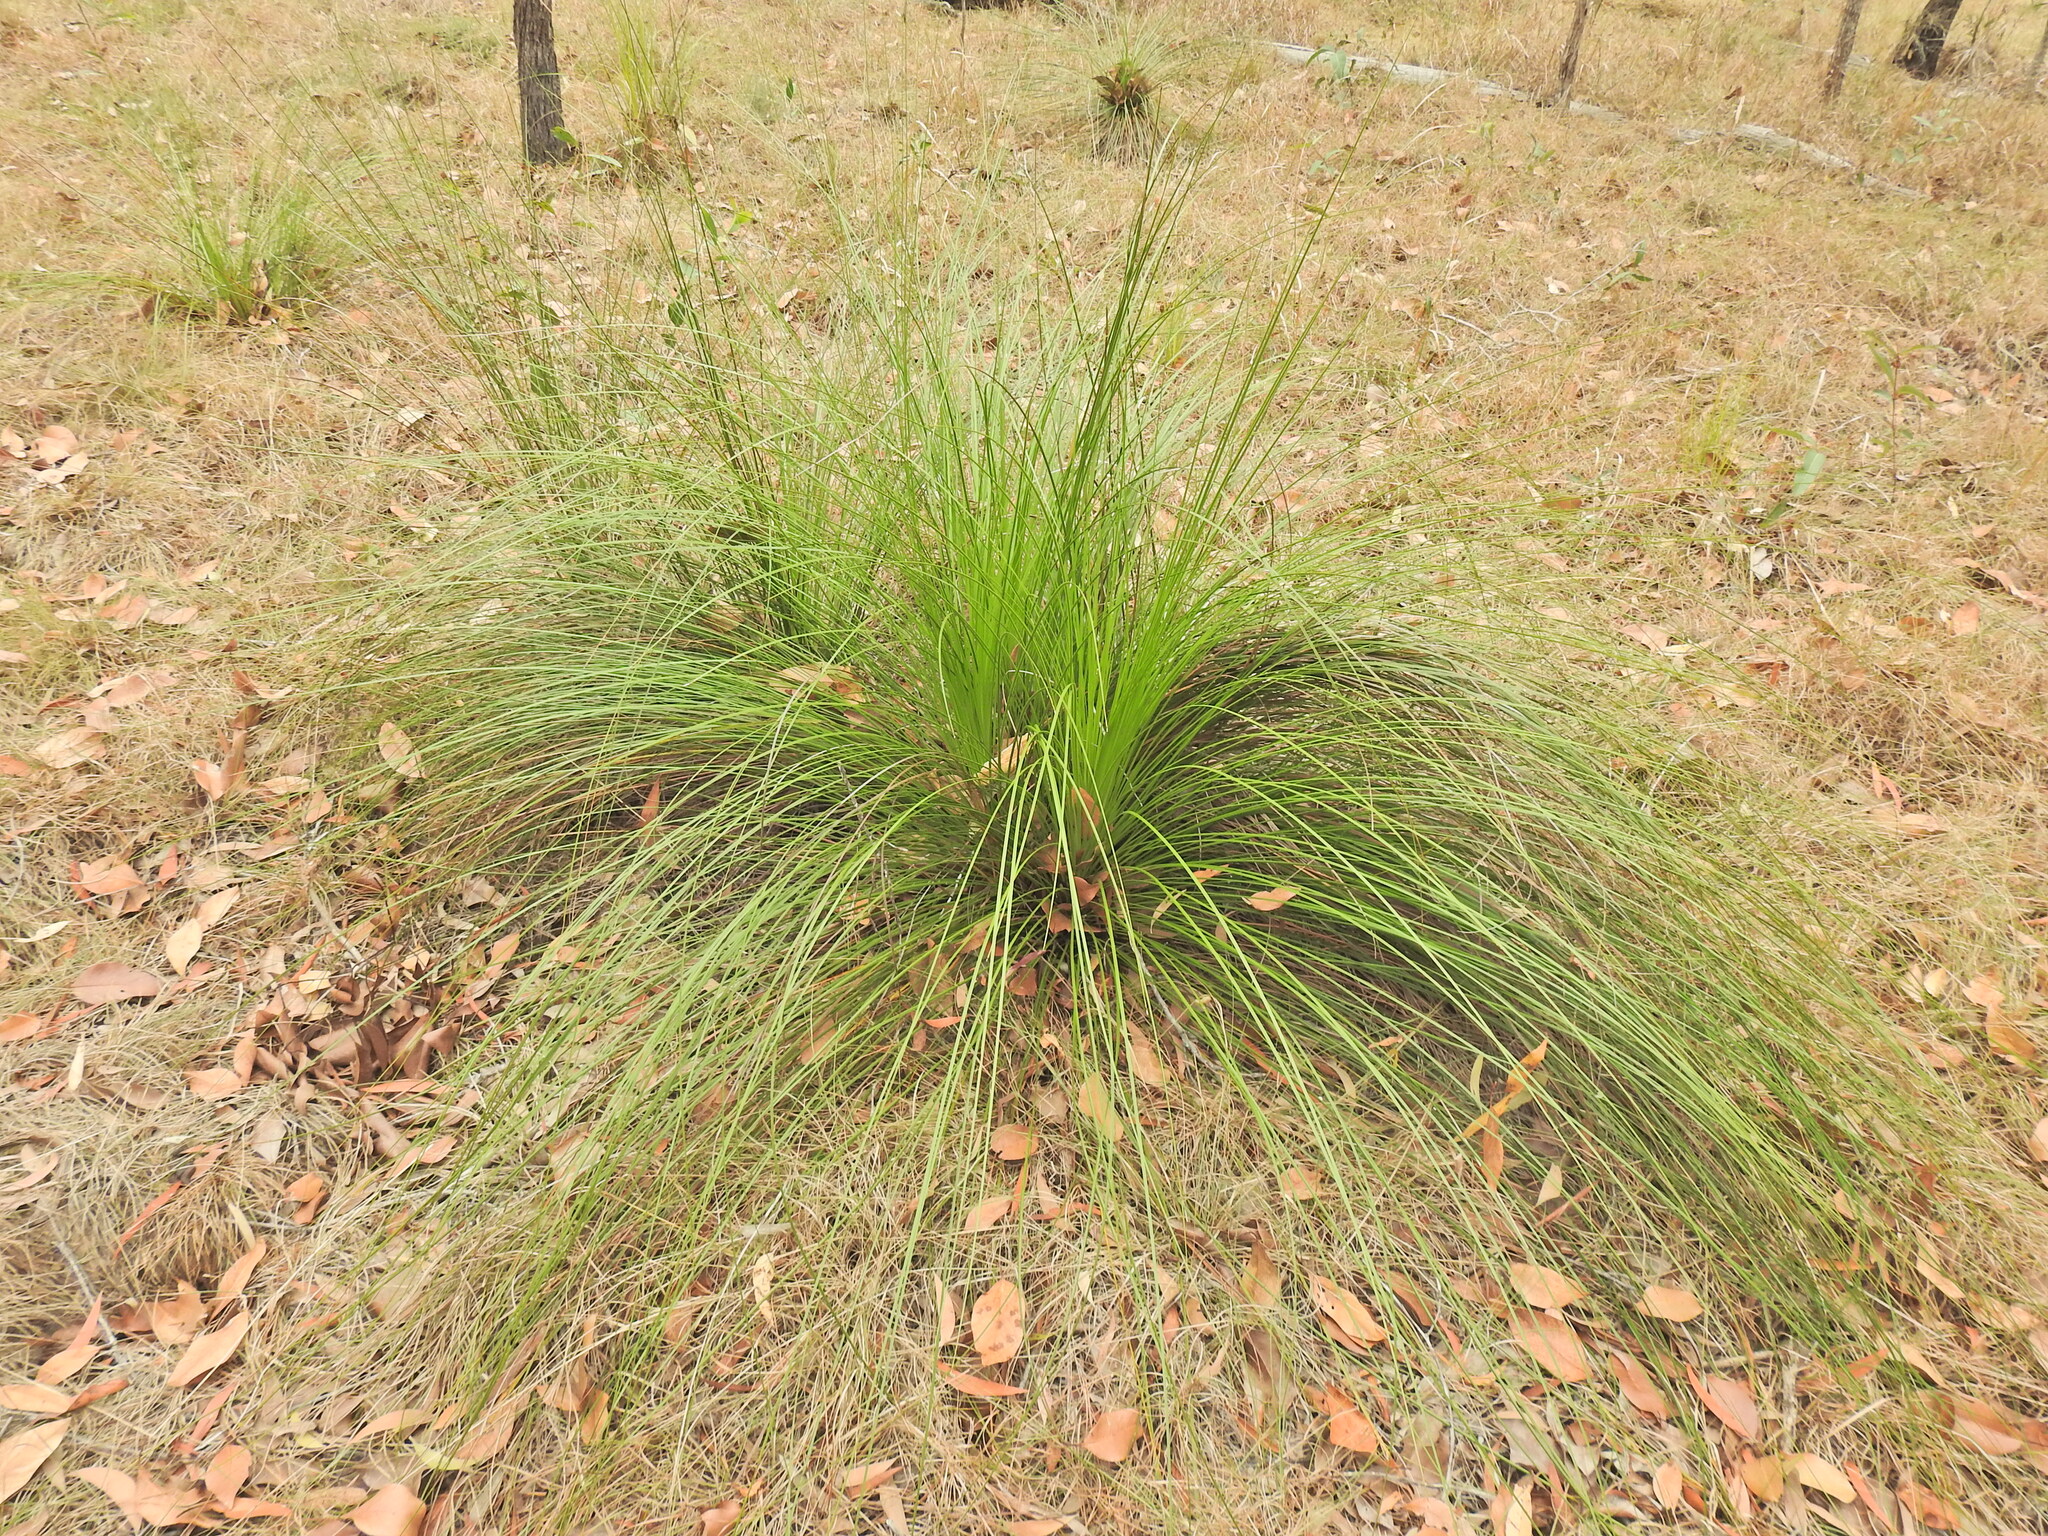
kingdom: Plantae
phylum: Tracheophyta
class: Liliopsida
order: Asparagales
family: Asphodelaceae
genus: Xanthorrhoea
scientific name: Xanthorrhoea latifolia
